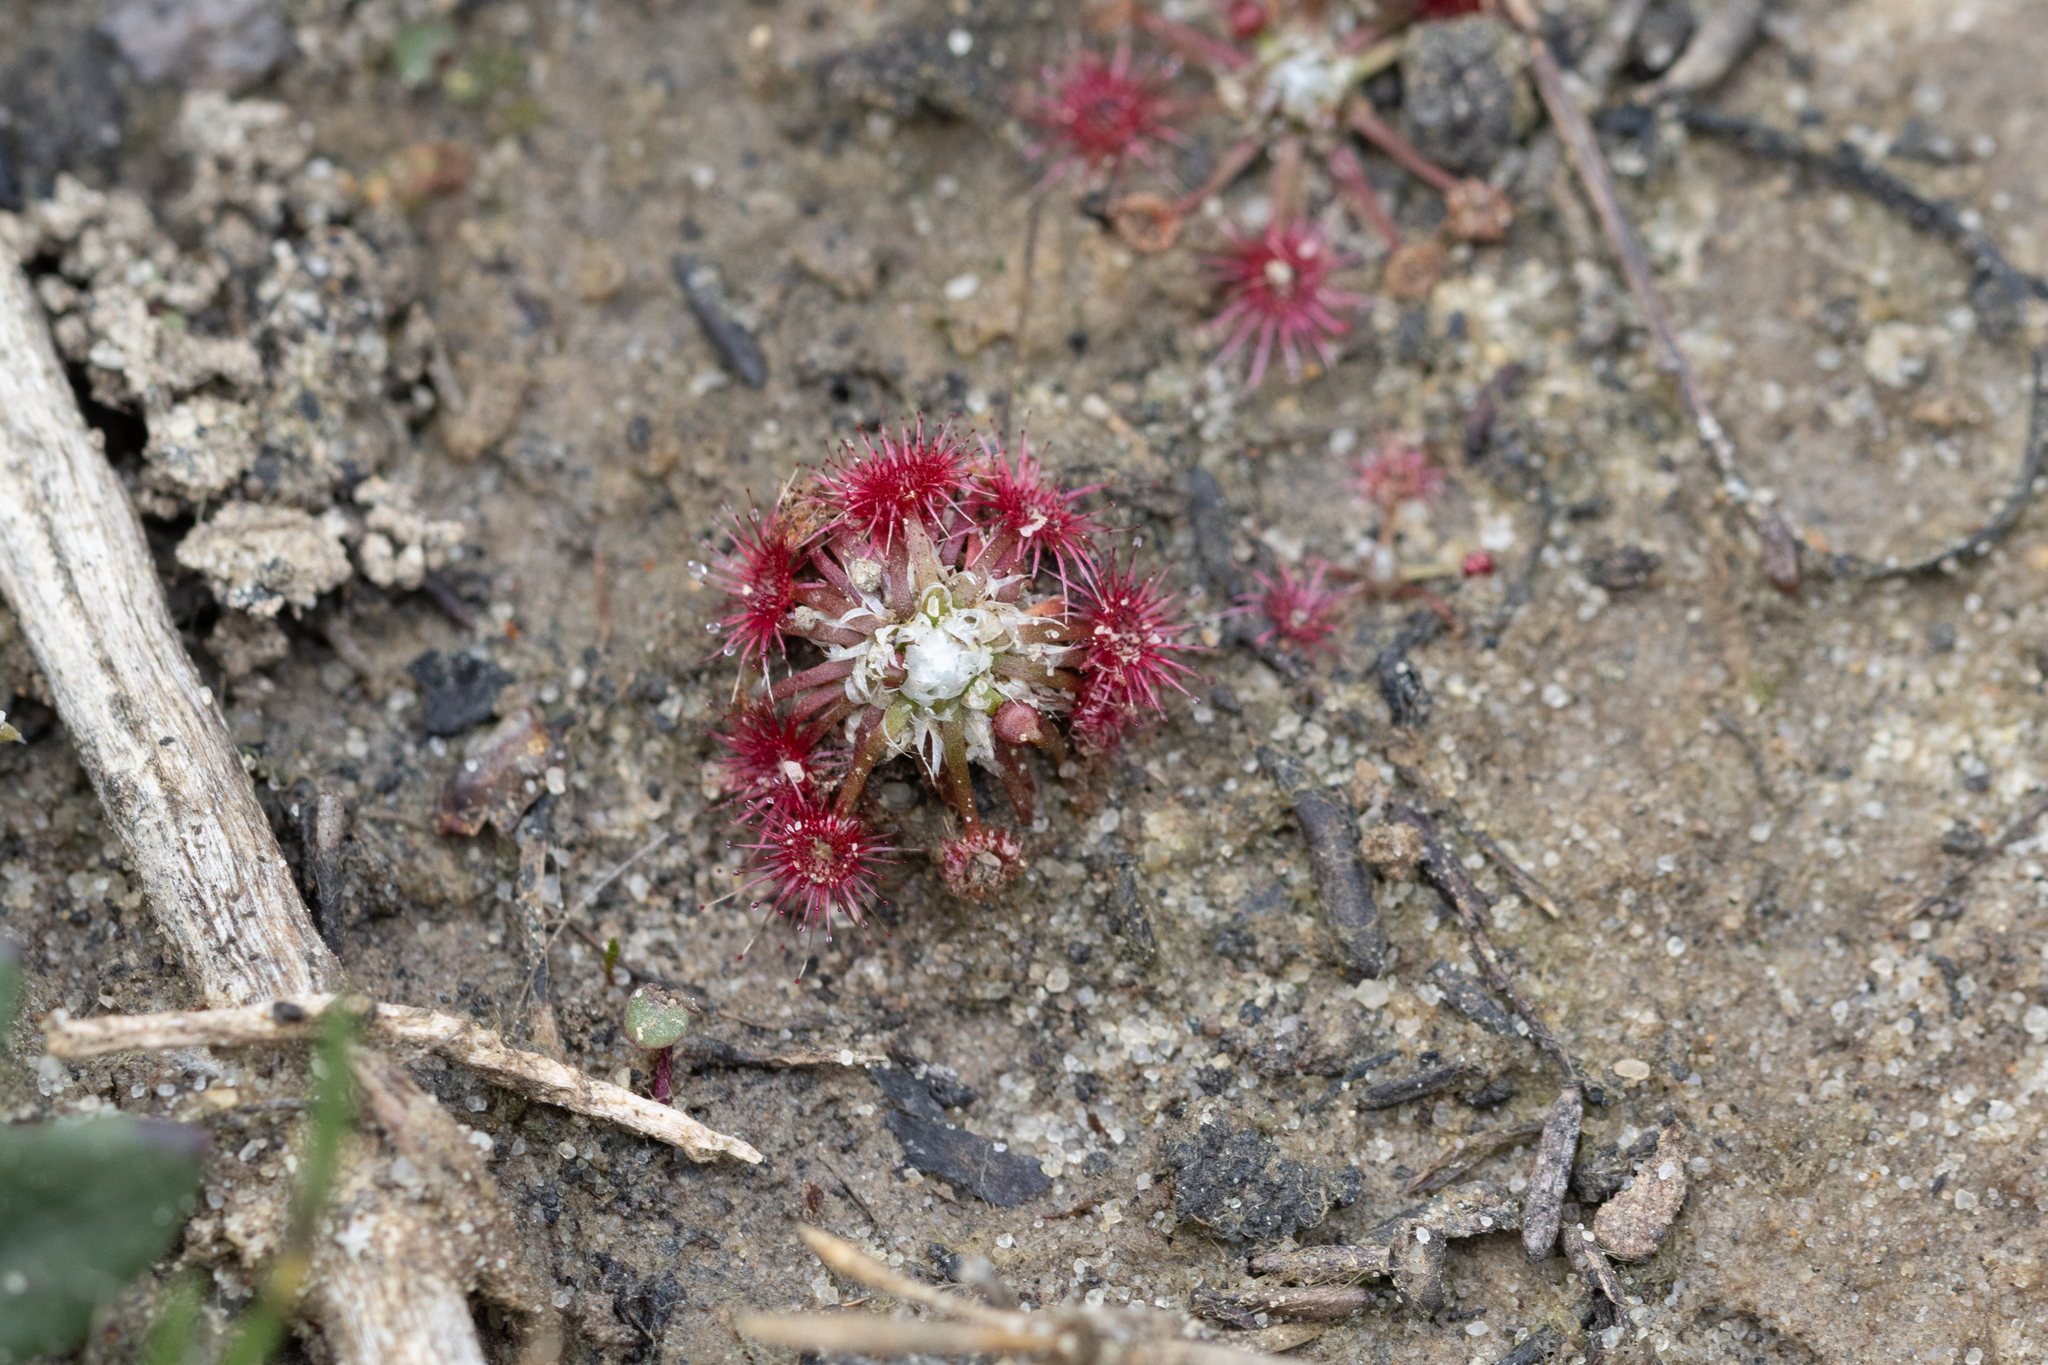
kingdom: Plantae
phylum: Tracheophyta
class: Magnoliopsida
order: Caryophyllales
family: Droseraceae
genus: Drosera
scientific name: Drosera pygmaea
